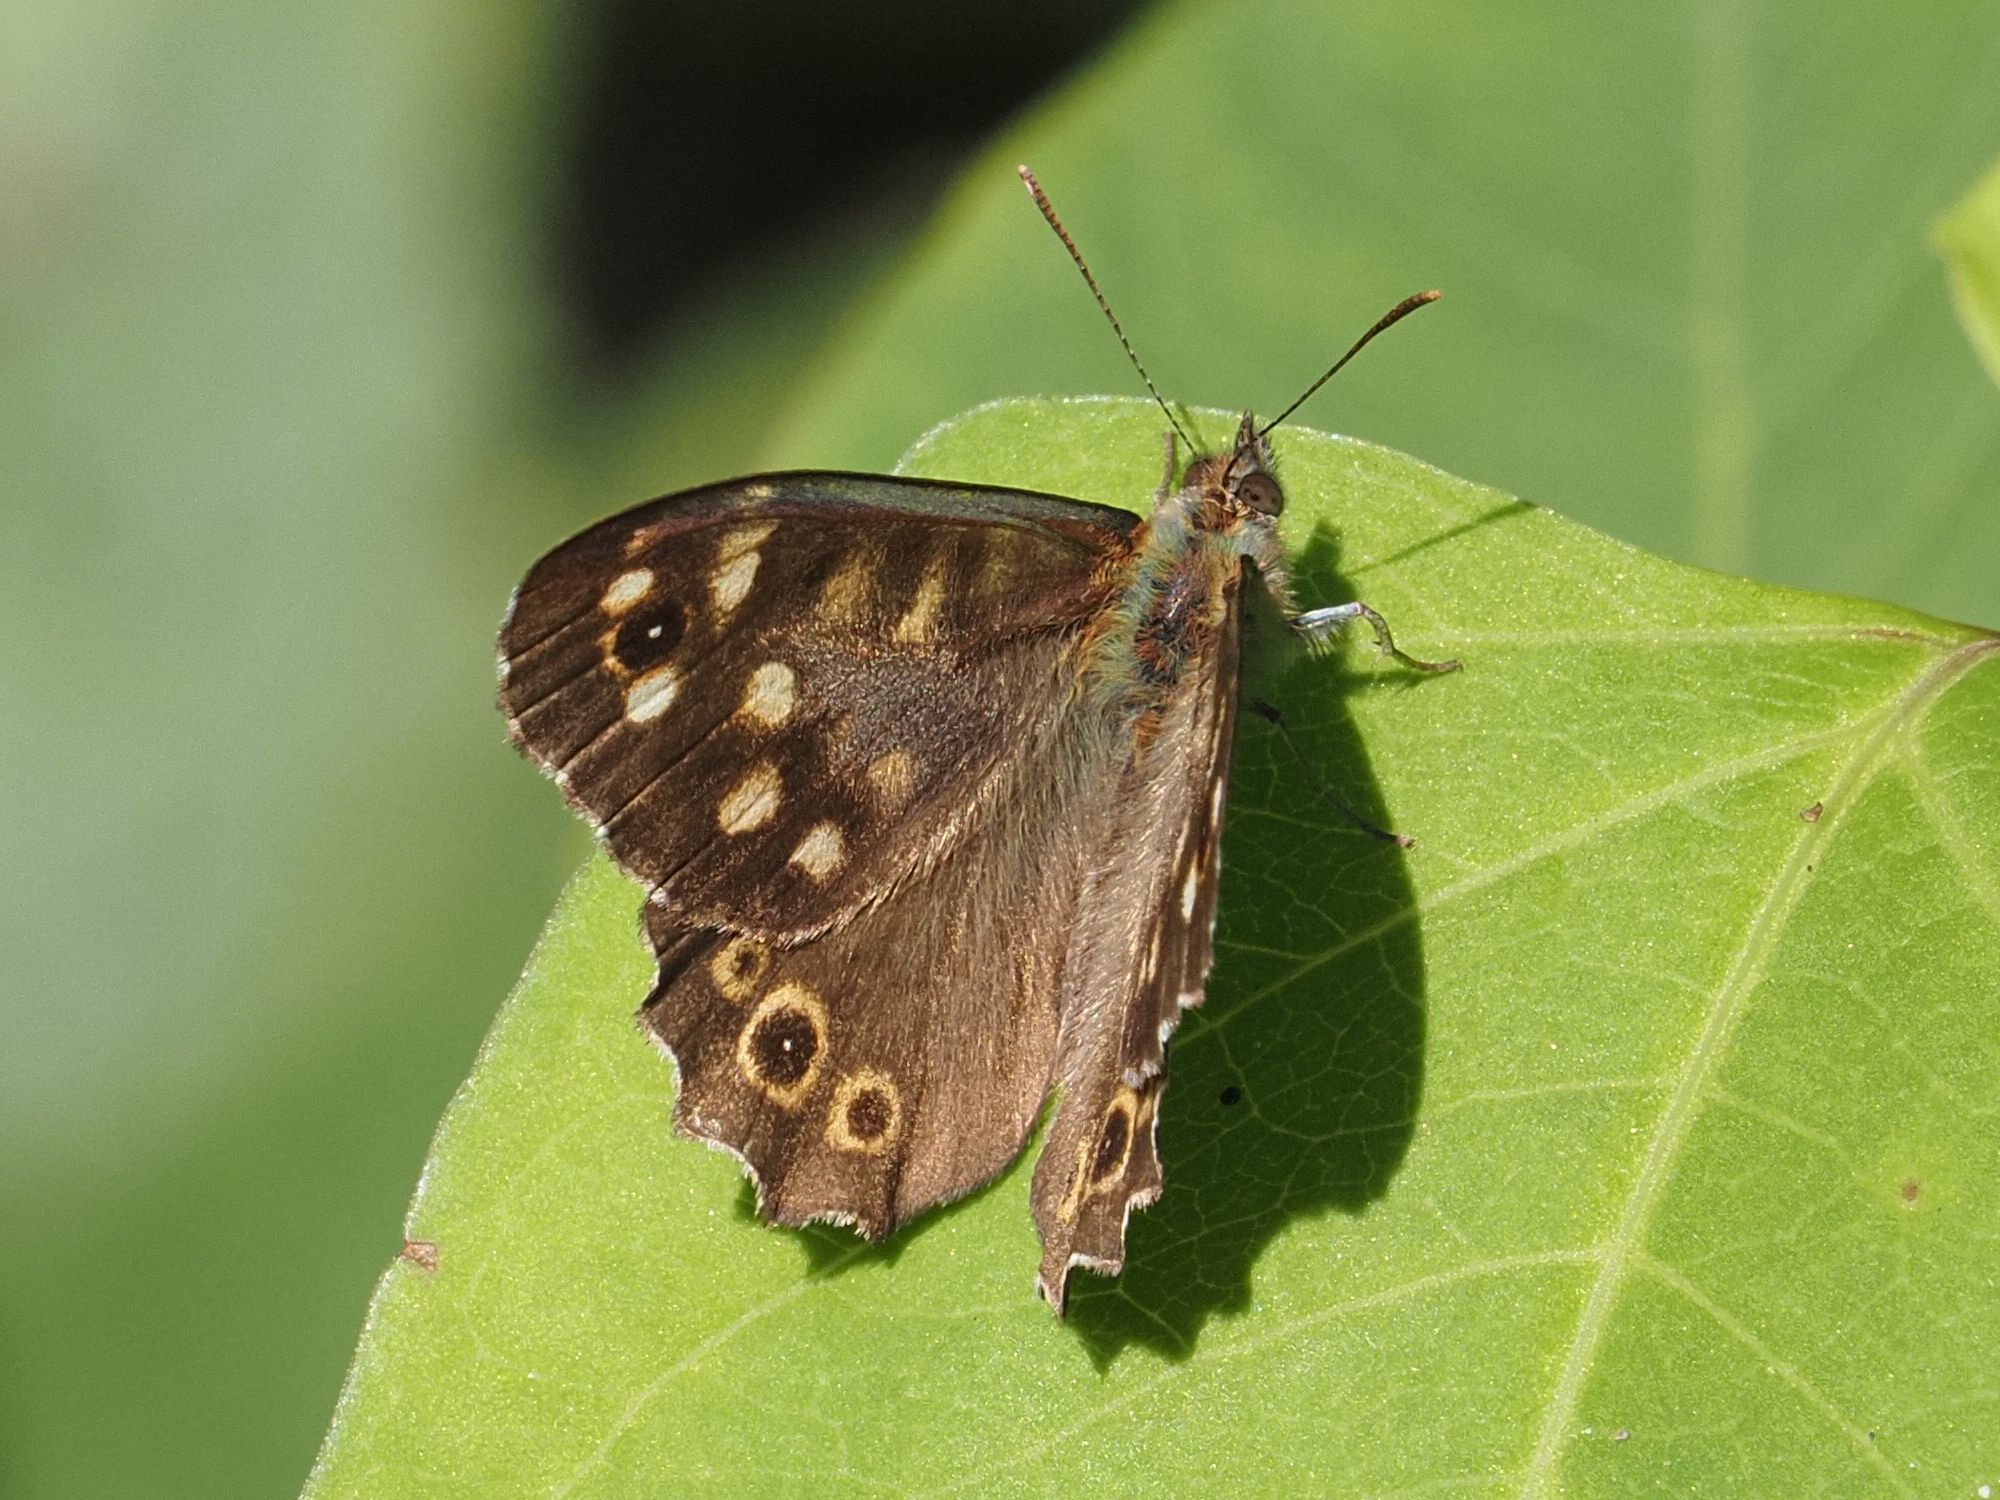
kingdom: Animalia
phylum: Arthropoda
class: Insecta
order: Lepidoptera
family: Nymphalidae
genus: Pararge
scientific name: Pararge aegeria
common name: Speckled wood
